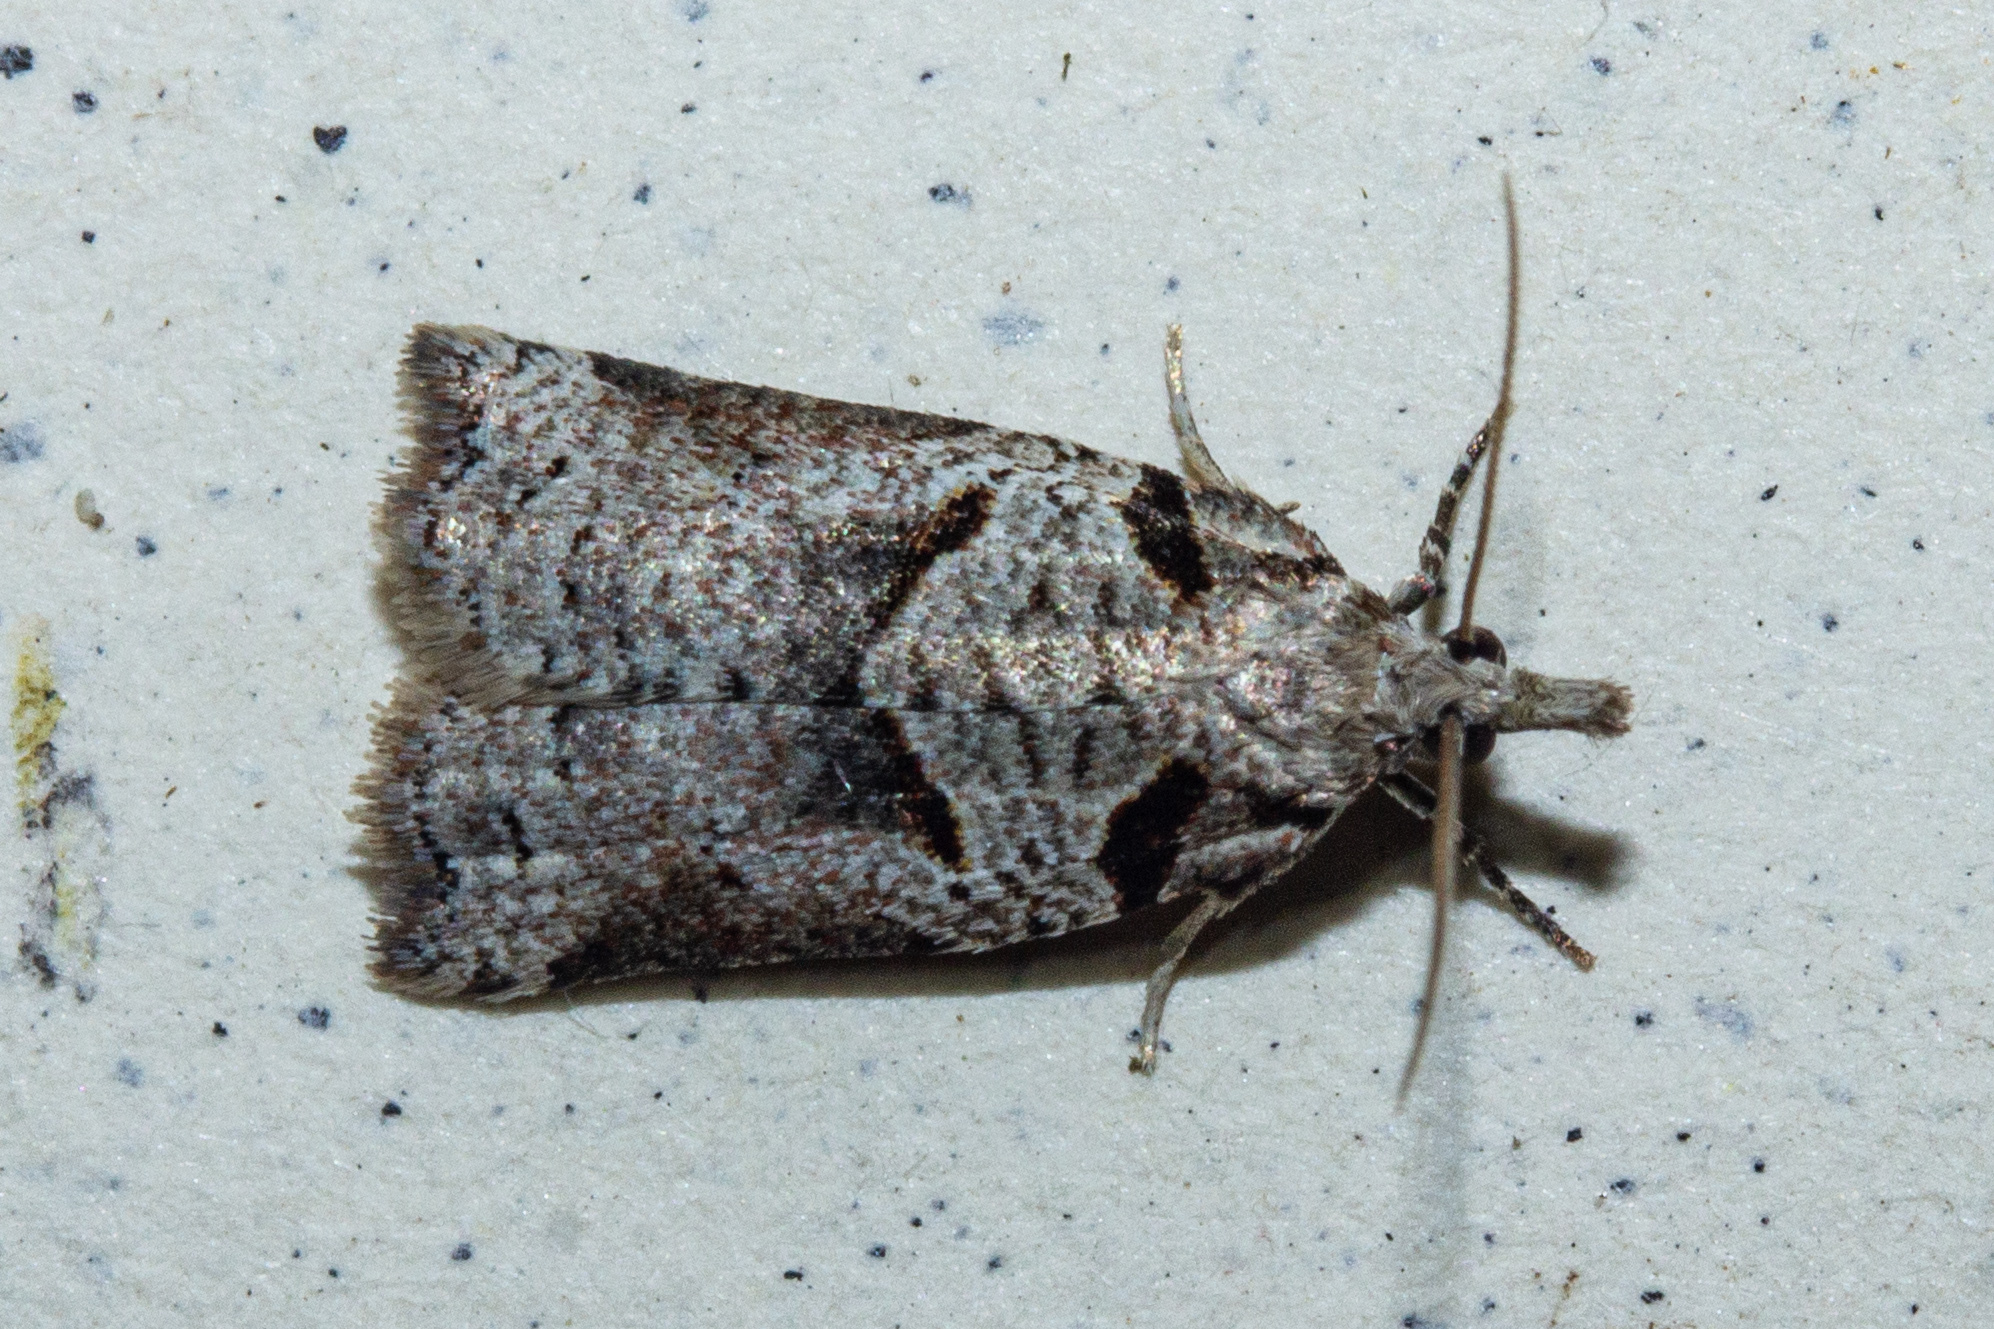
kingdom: Animalia
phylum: Arthropoda
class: Insecta
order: Lepidoptera
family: Tortricidae
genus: Harmologa
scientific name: Harmologa amplexana
